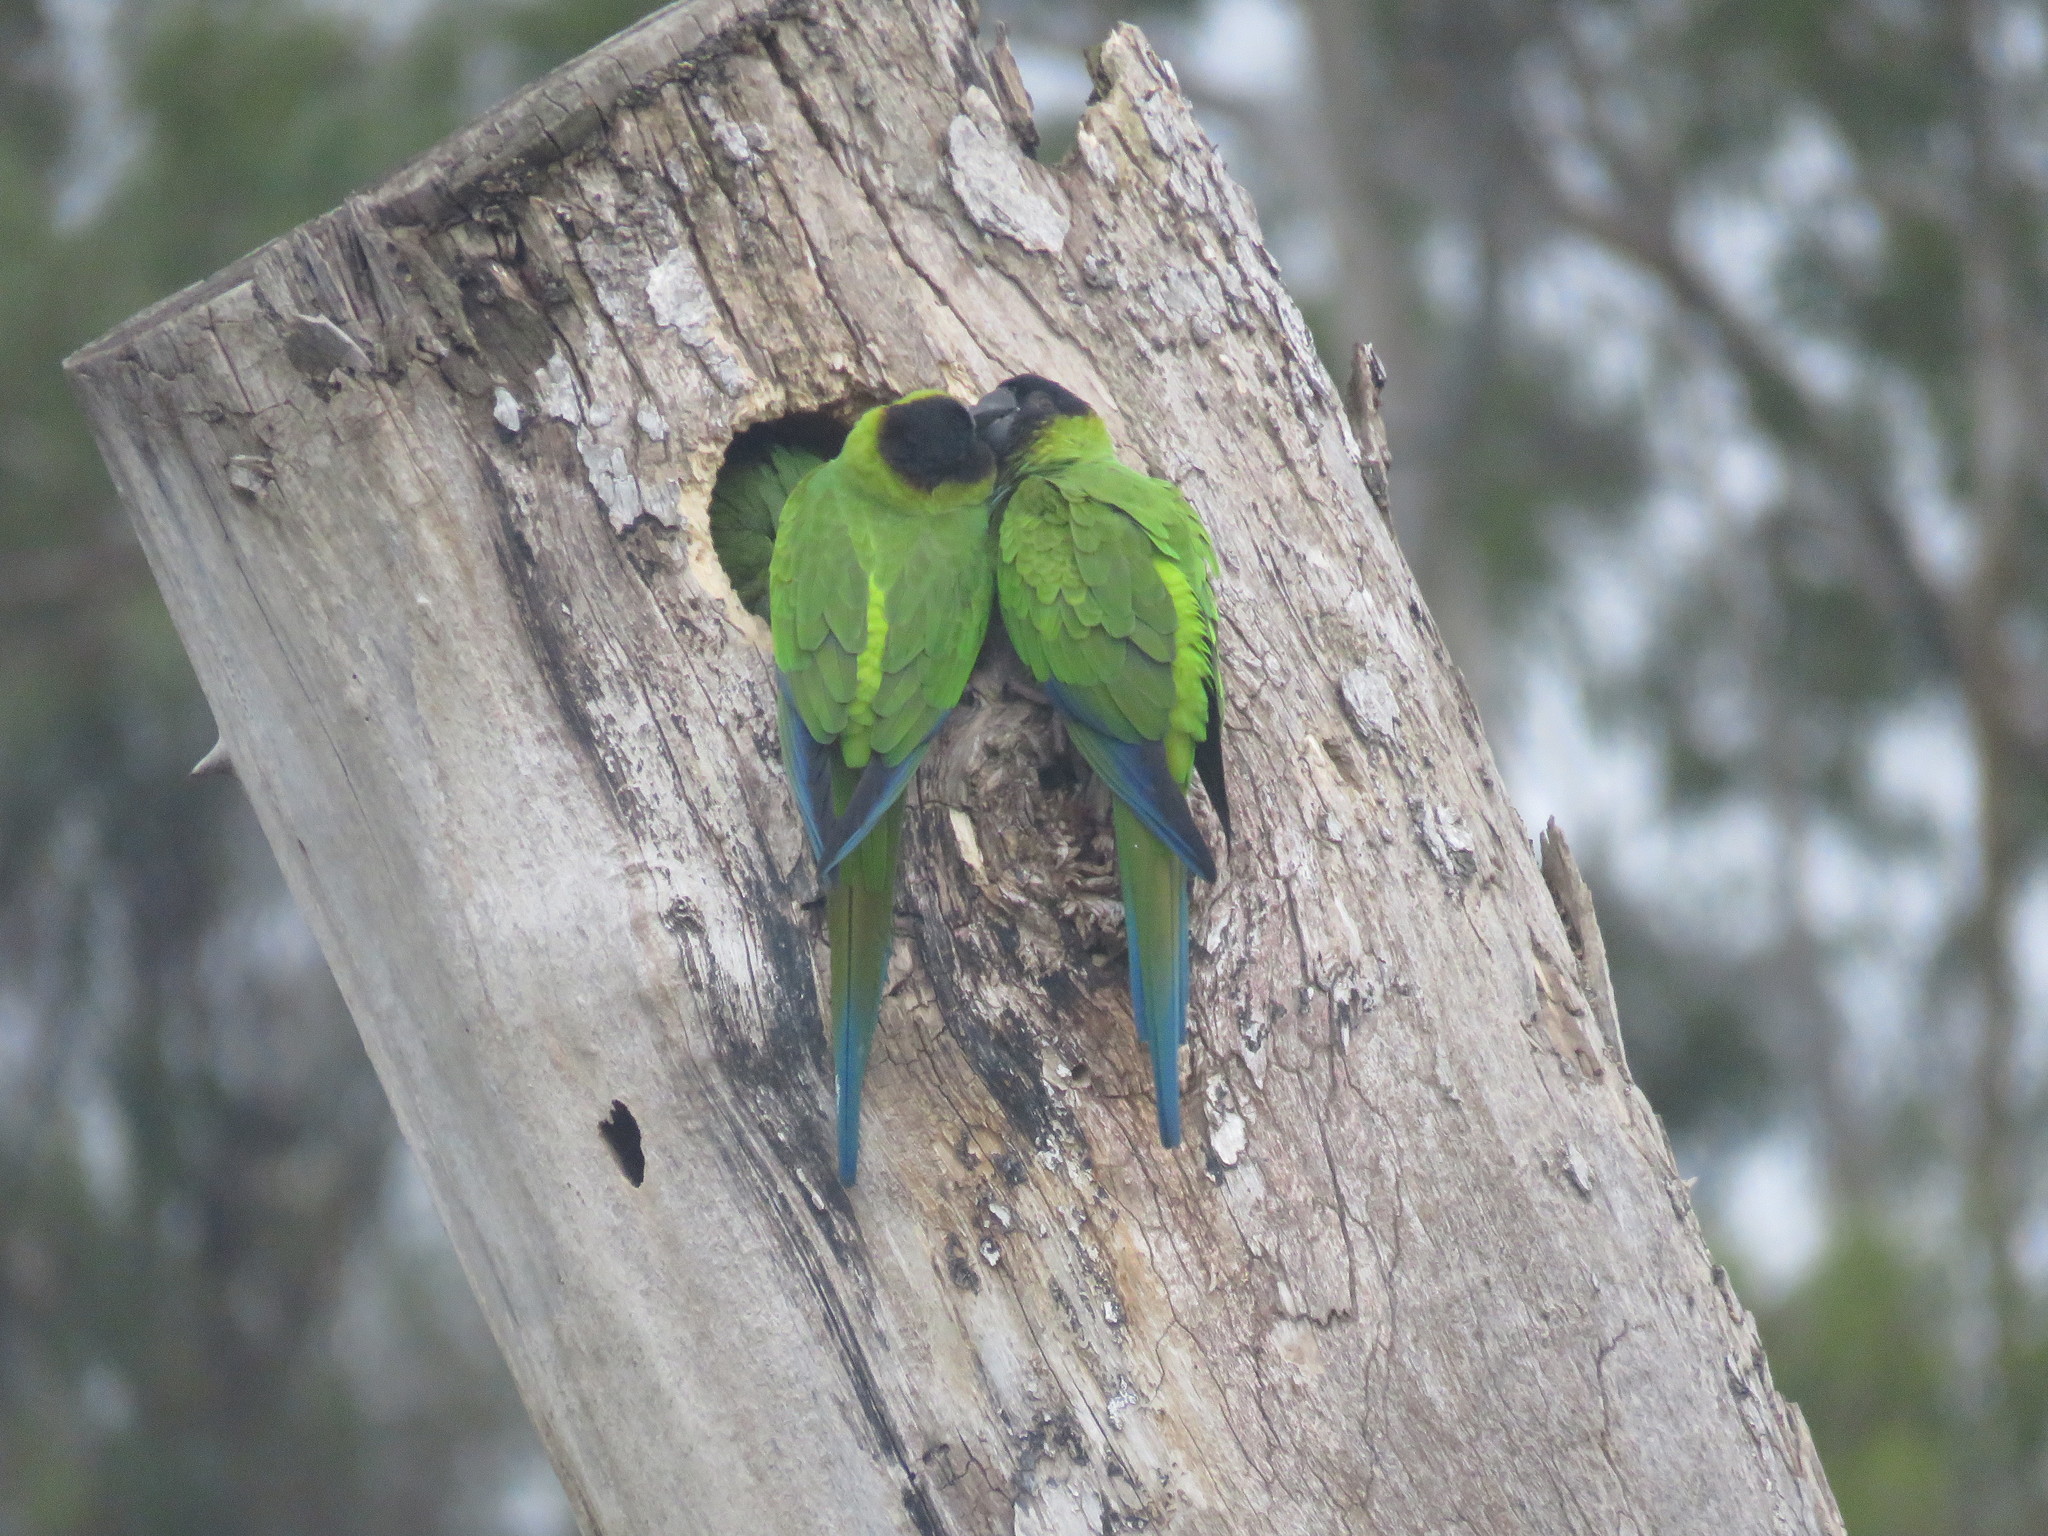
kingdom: Animalia
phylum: Chordata
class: Aves
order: Psittaciformes
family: Psittacidae
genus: Nandayus
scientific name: Nandayus nenday
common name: Nanday parakeet
